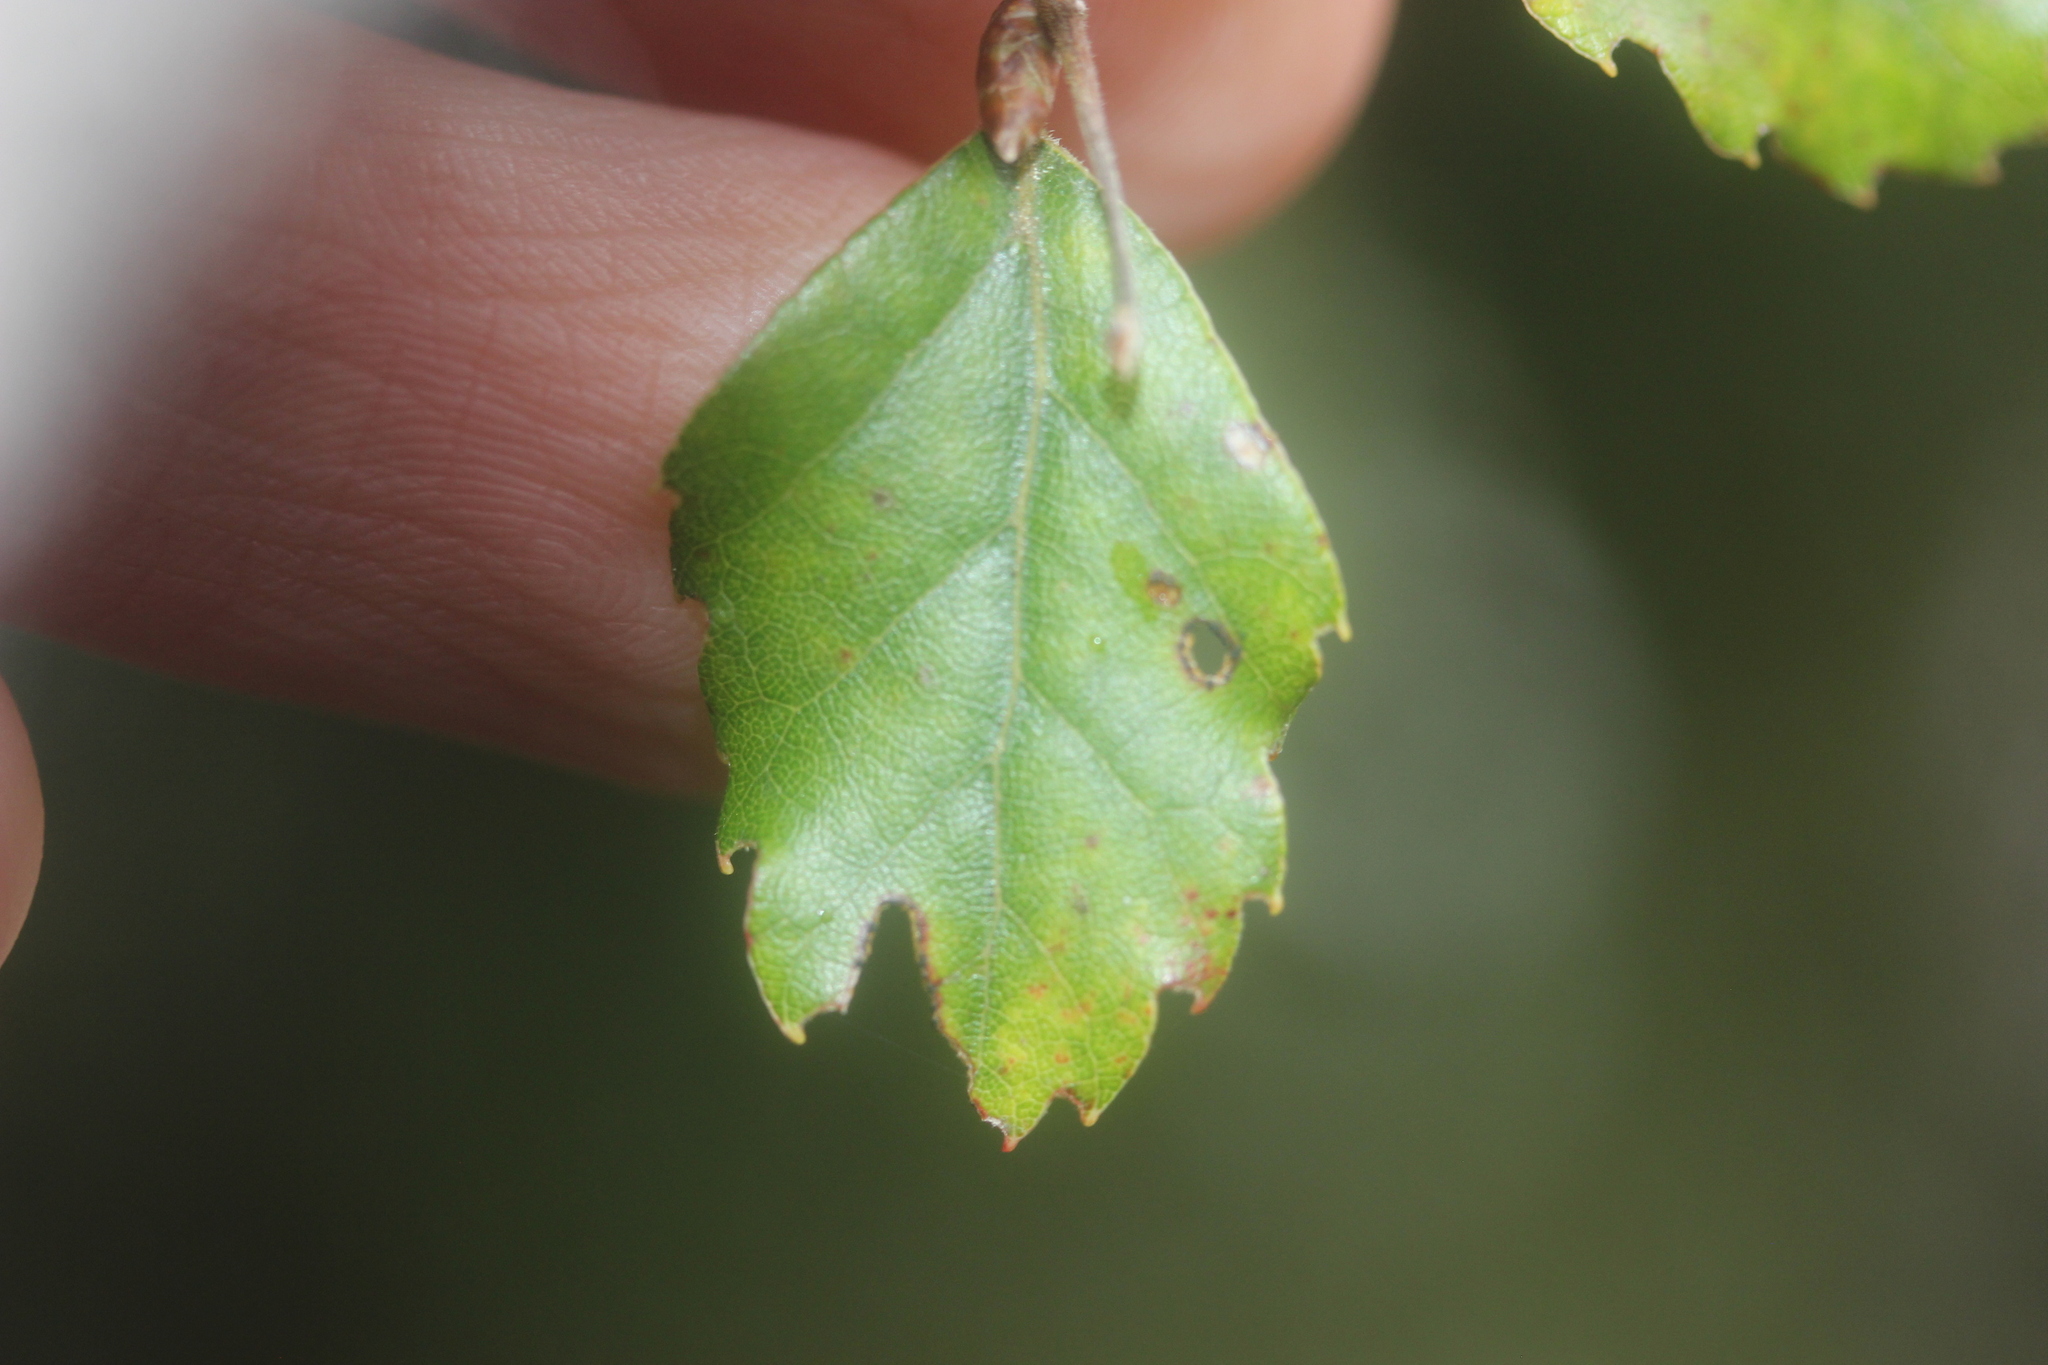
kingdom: Plantae
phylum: Tracheophyta
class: Magnoliopsida
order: Fagales
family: Nothofagaceae
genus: Nothofagus
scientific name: Nothofagus fusca
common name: Red beech
